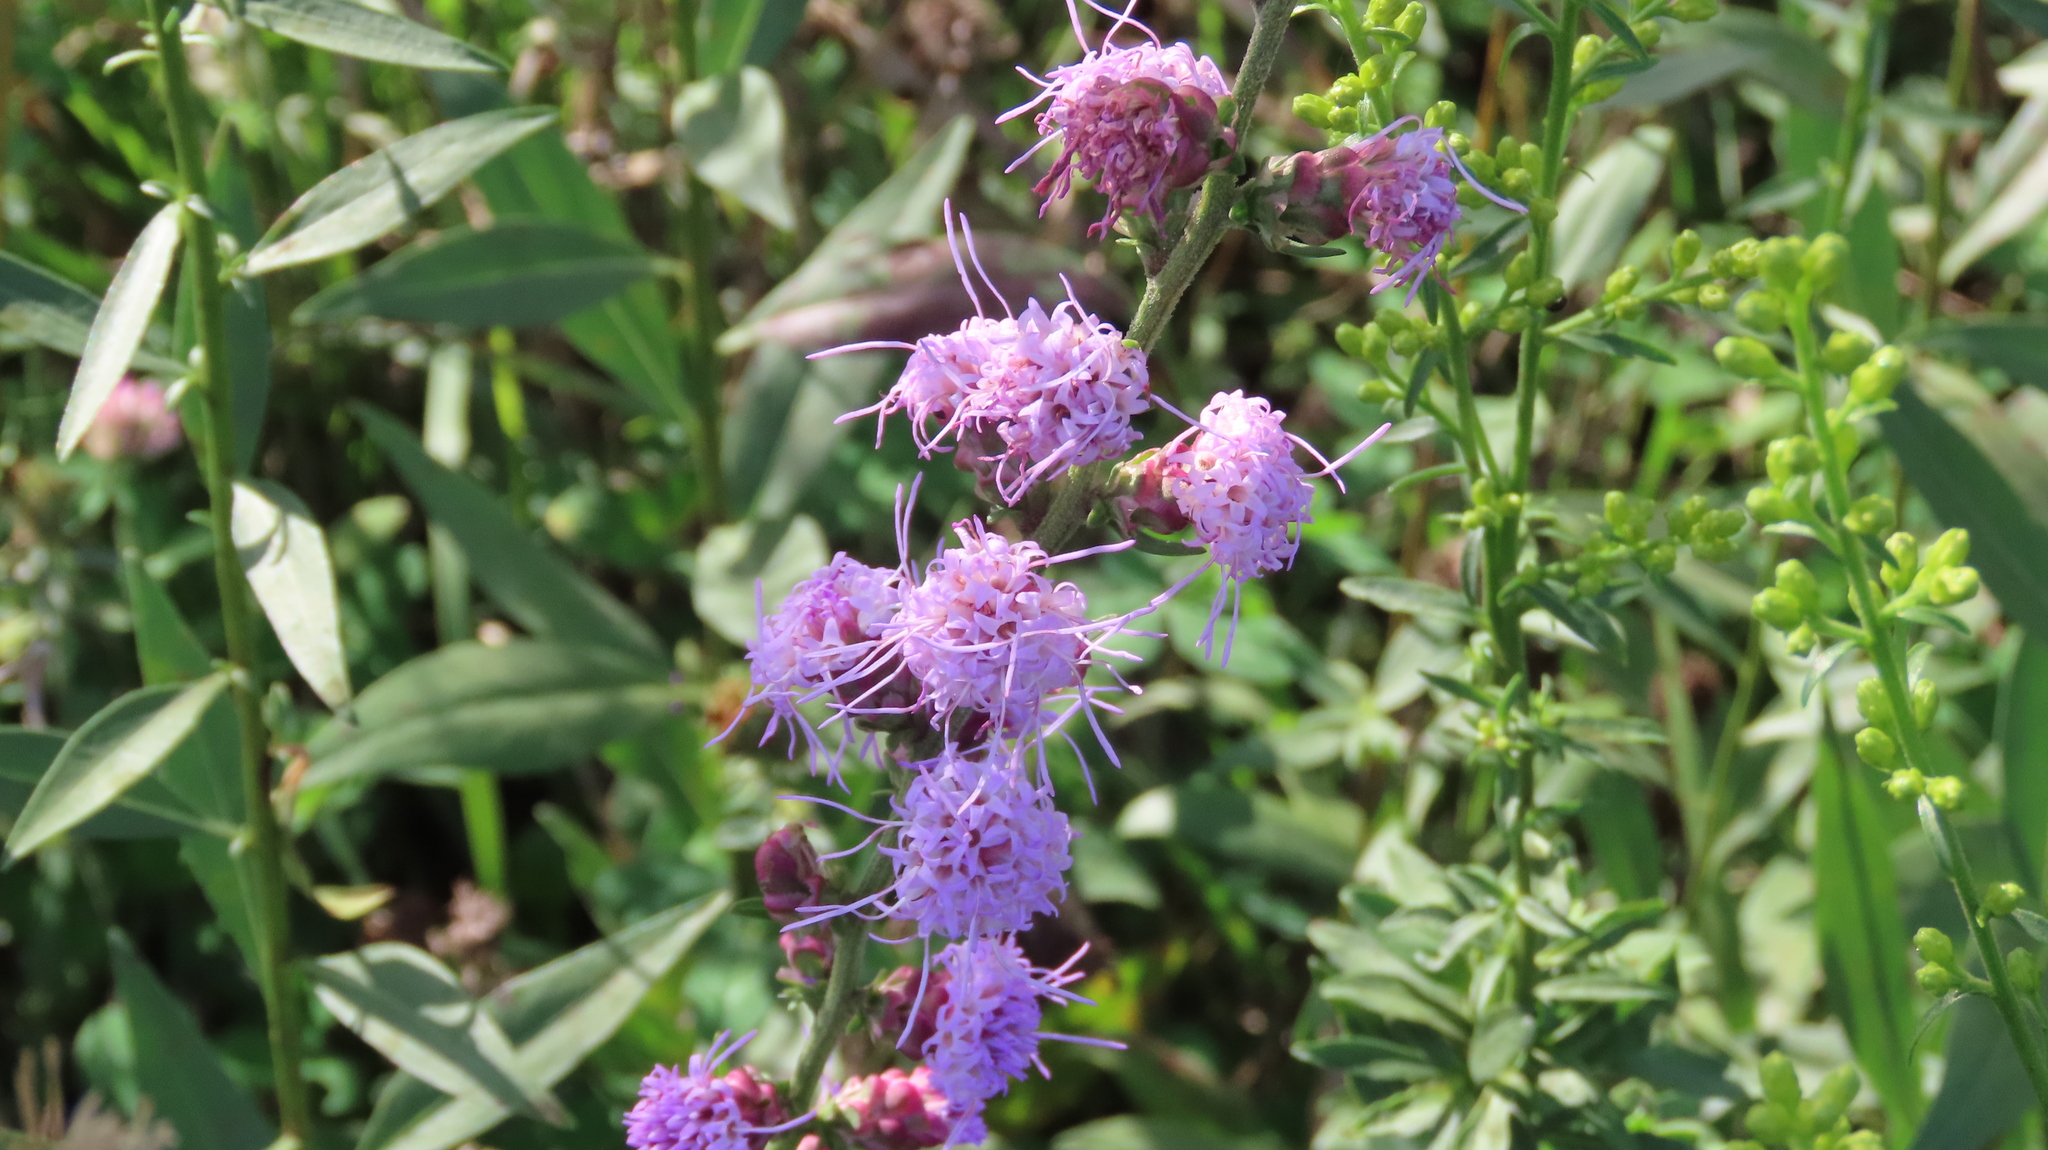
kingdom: Plantae
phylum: Tracheophyta
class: Magnoliopsida
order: Asterales
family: Asteraceae
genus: Liatris
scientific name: Liatris aspera
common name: Lacerate blazing-star
